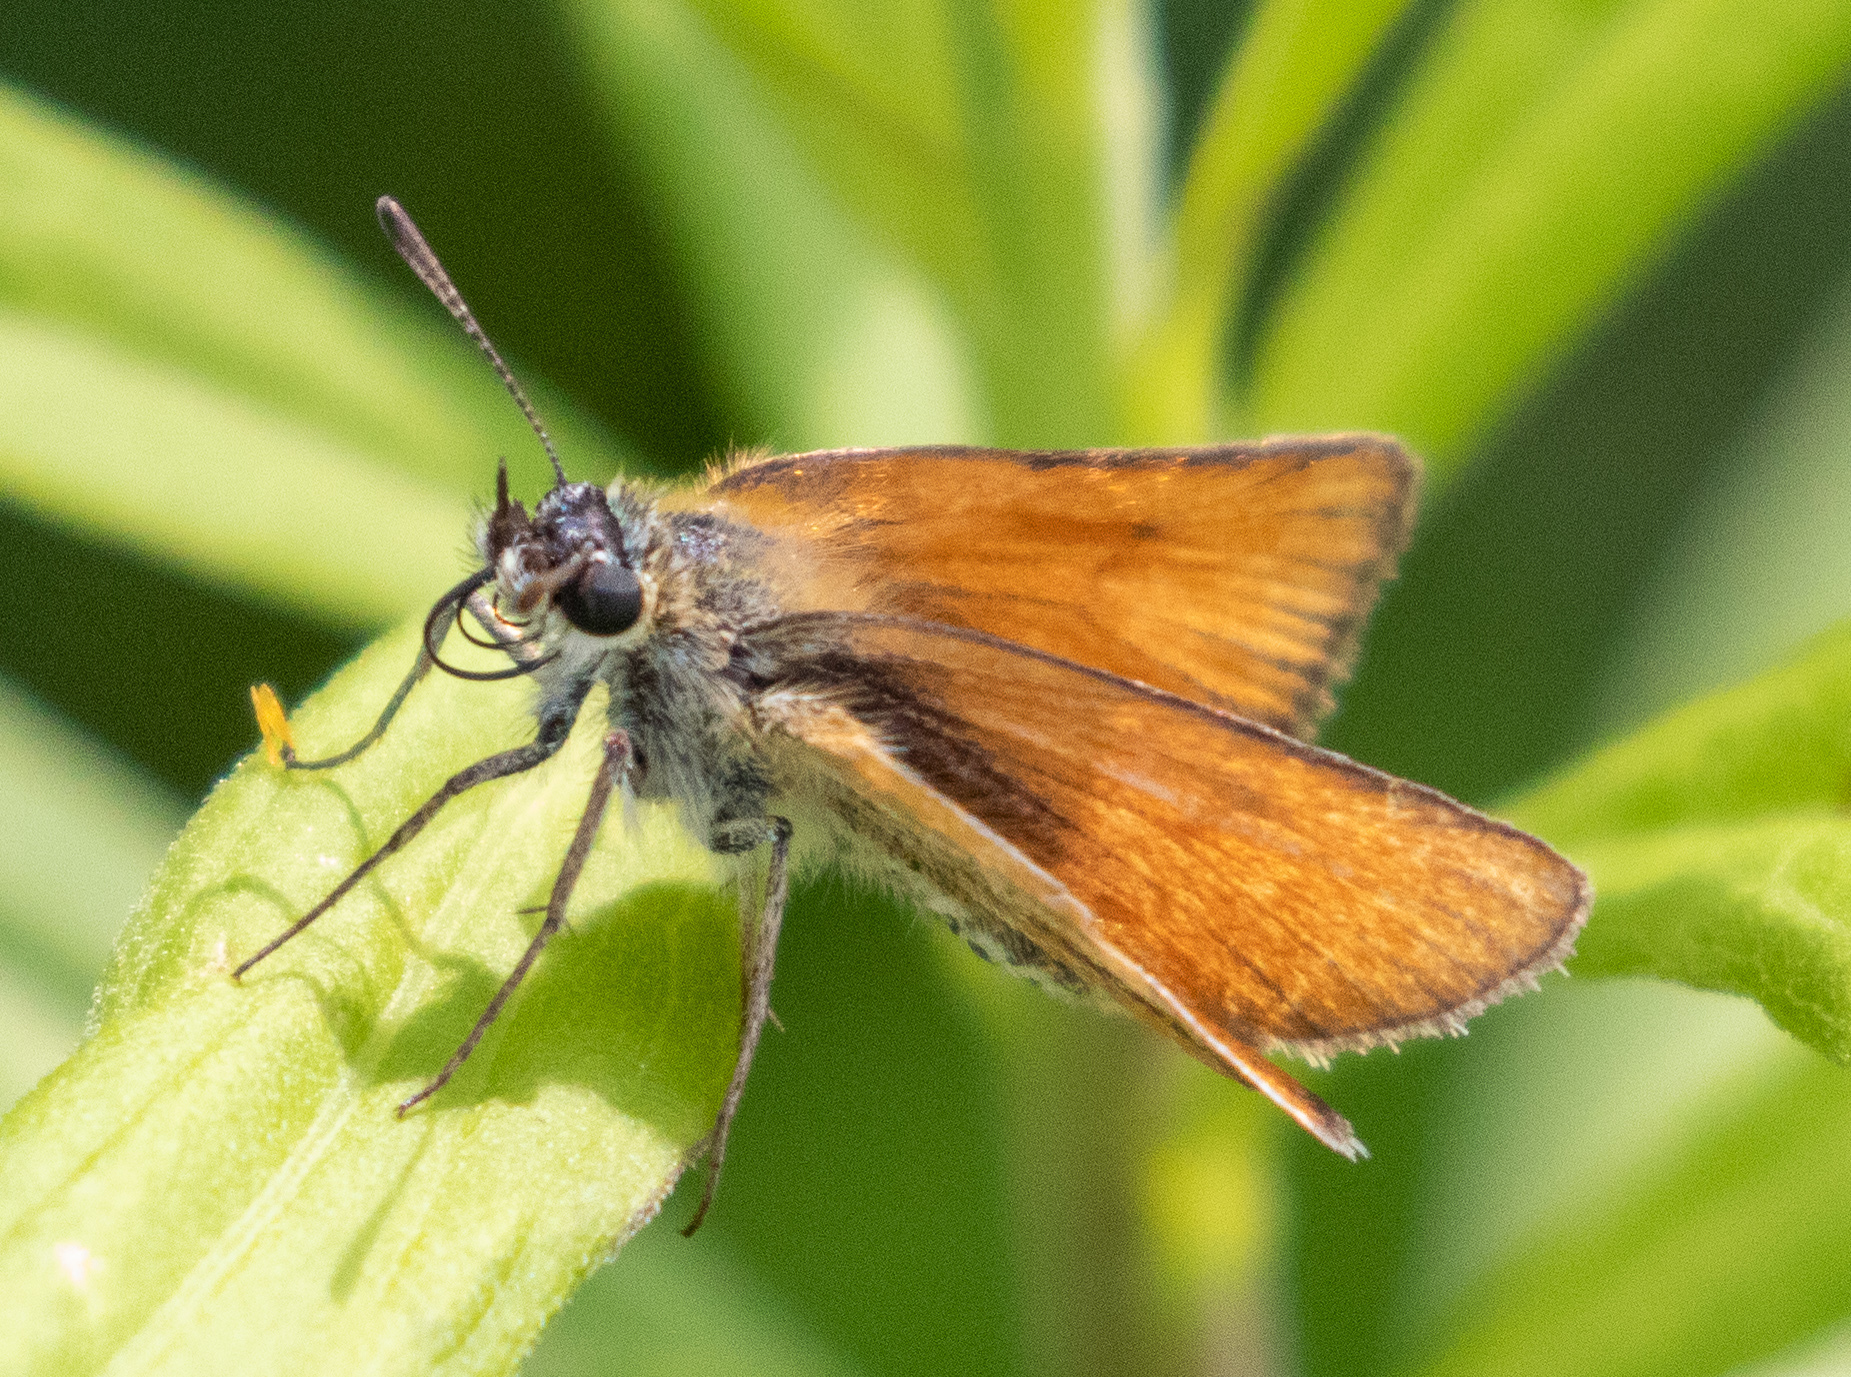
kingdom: Animalia
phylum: Arthropoda
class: Insecta
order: Lepidoptera
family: Hesperiidae
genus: Thymelicus
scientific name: Thymelicus lineola
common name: Essex skipper
